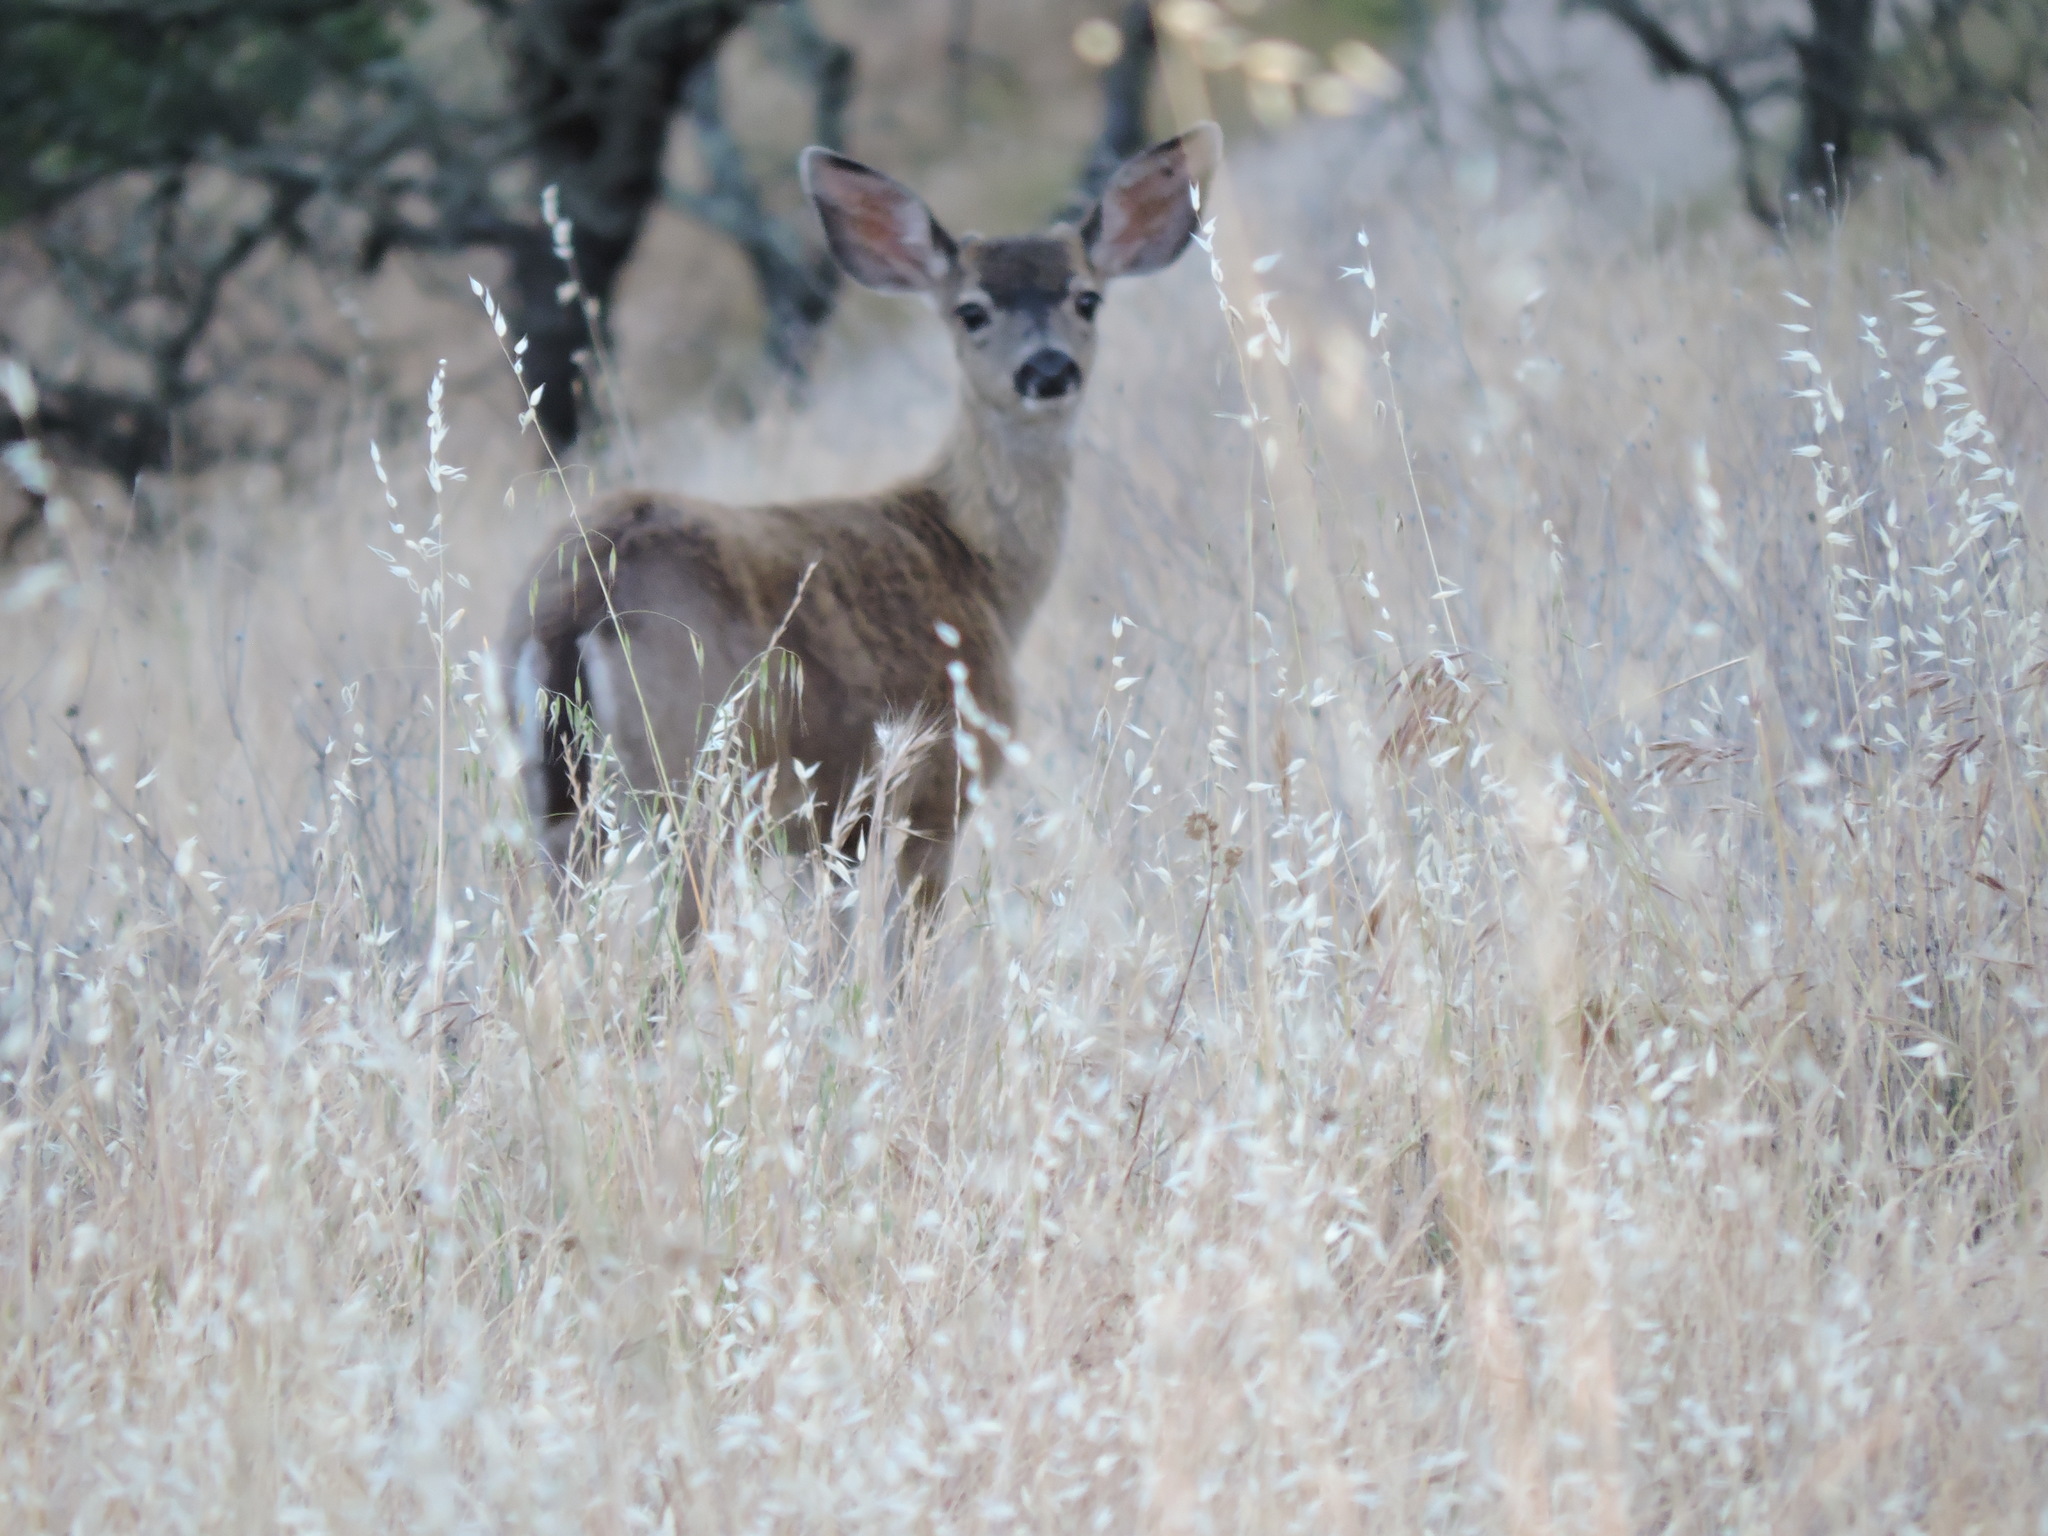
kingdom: Animalia
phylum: Chordata
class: Mammalia
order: Artiodactyla
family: Cervidae
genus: Odocoileus
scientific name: Odocoileus hemionus
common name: Mule deer
